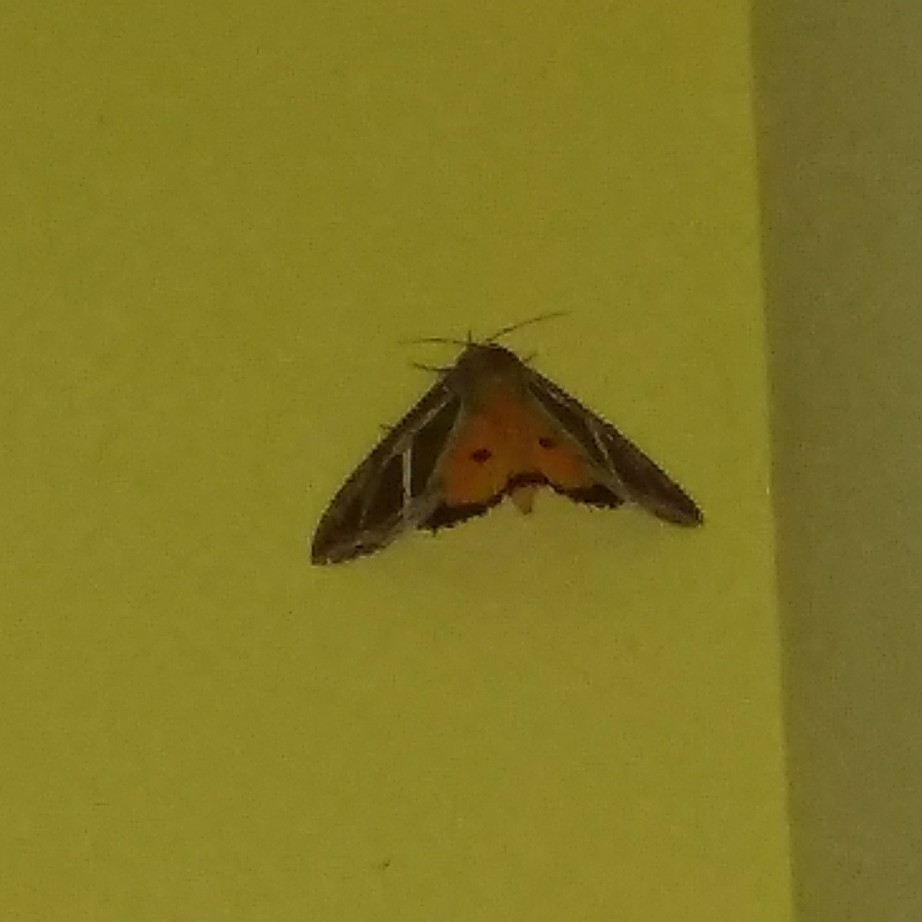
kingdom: Animalia
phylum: Arthropoda
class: Insecta
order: Lepidoptera
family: Erebidae
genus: Eudocima
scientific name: Eudocima materna
